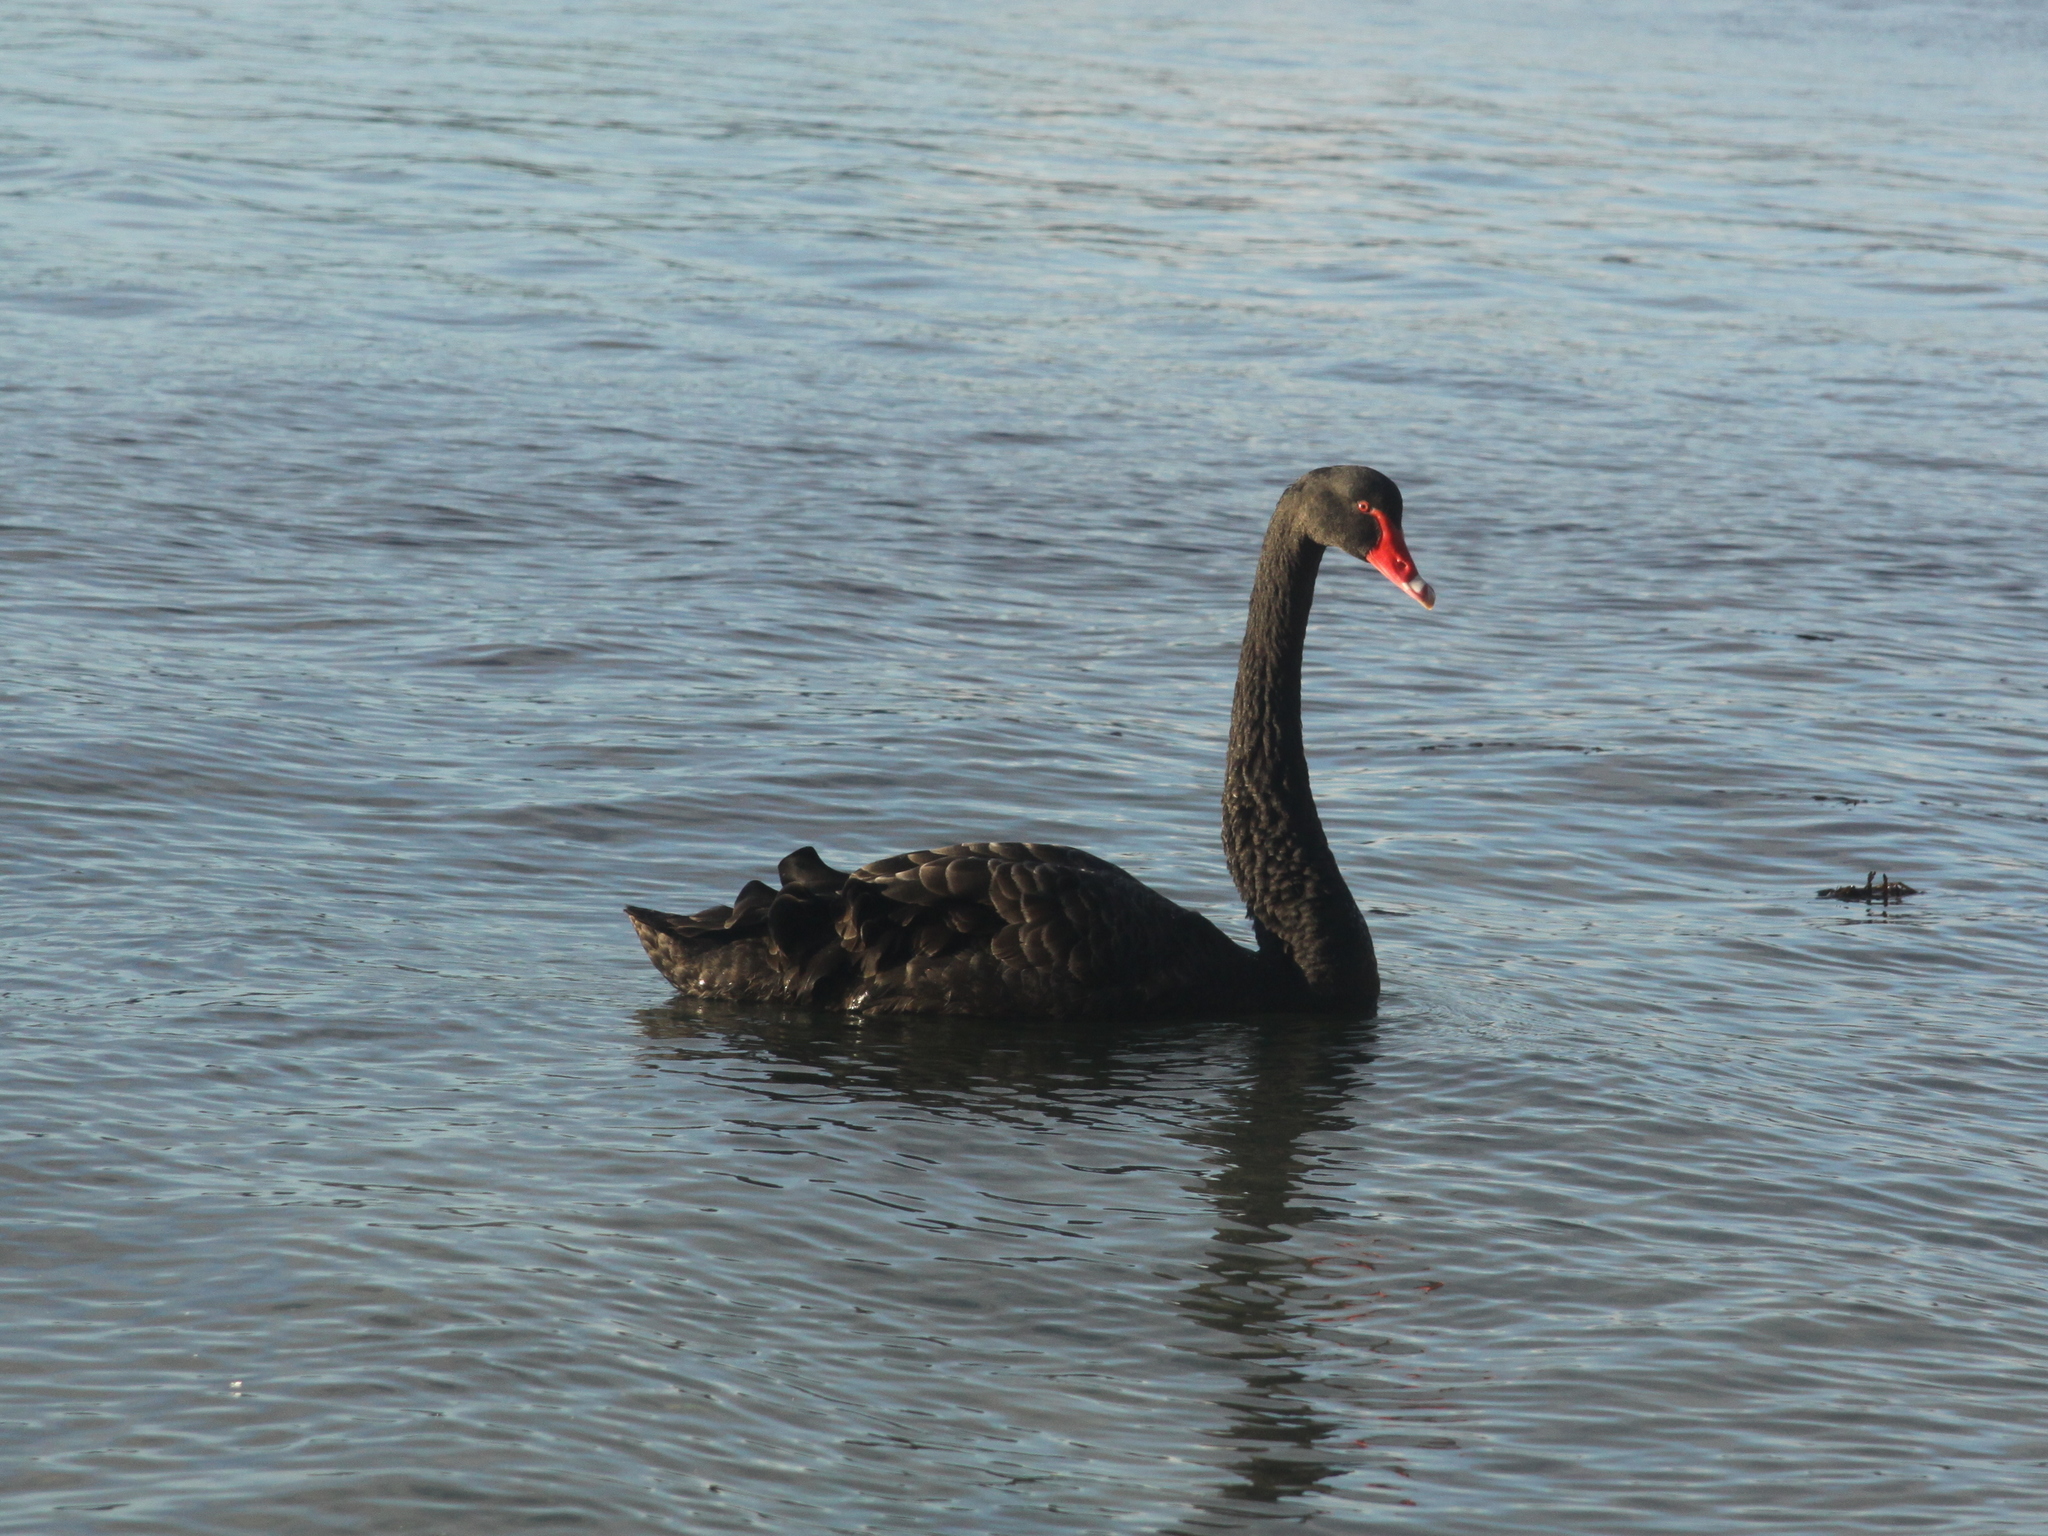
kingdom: Animalia
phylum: Chordata
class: Aves
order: Anseriformes
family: Anatidae
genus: Cygnus
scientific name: Cygnus atratus
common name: Black swan
